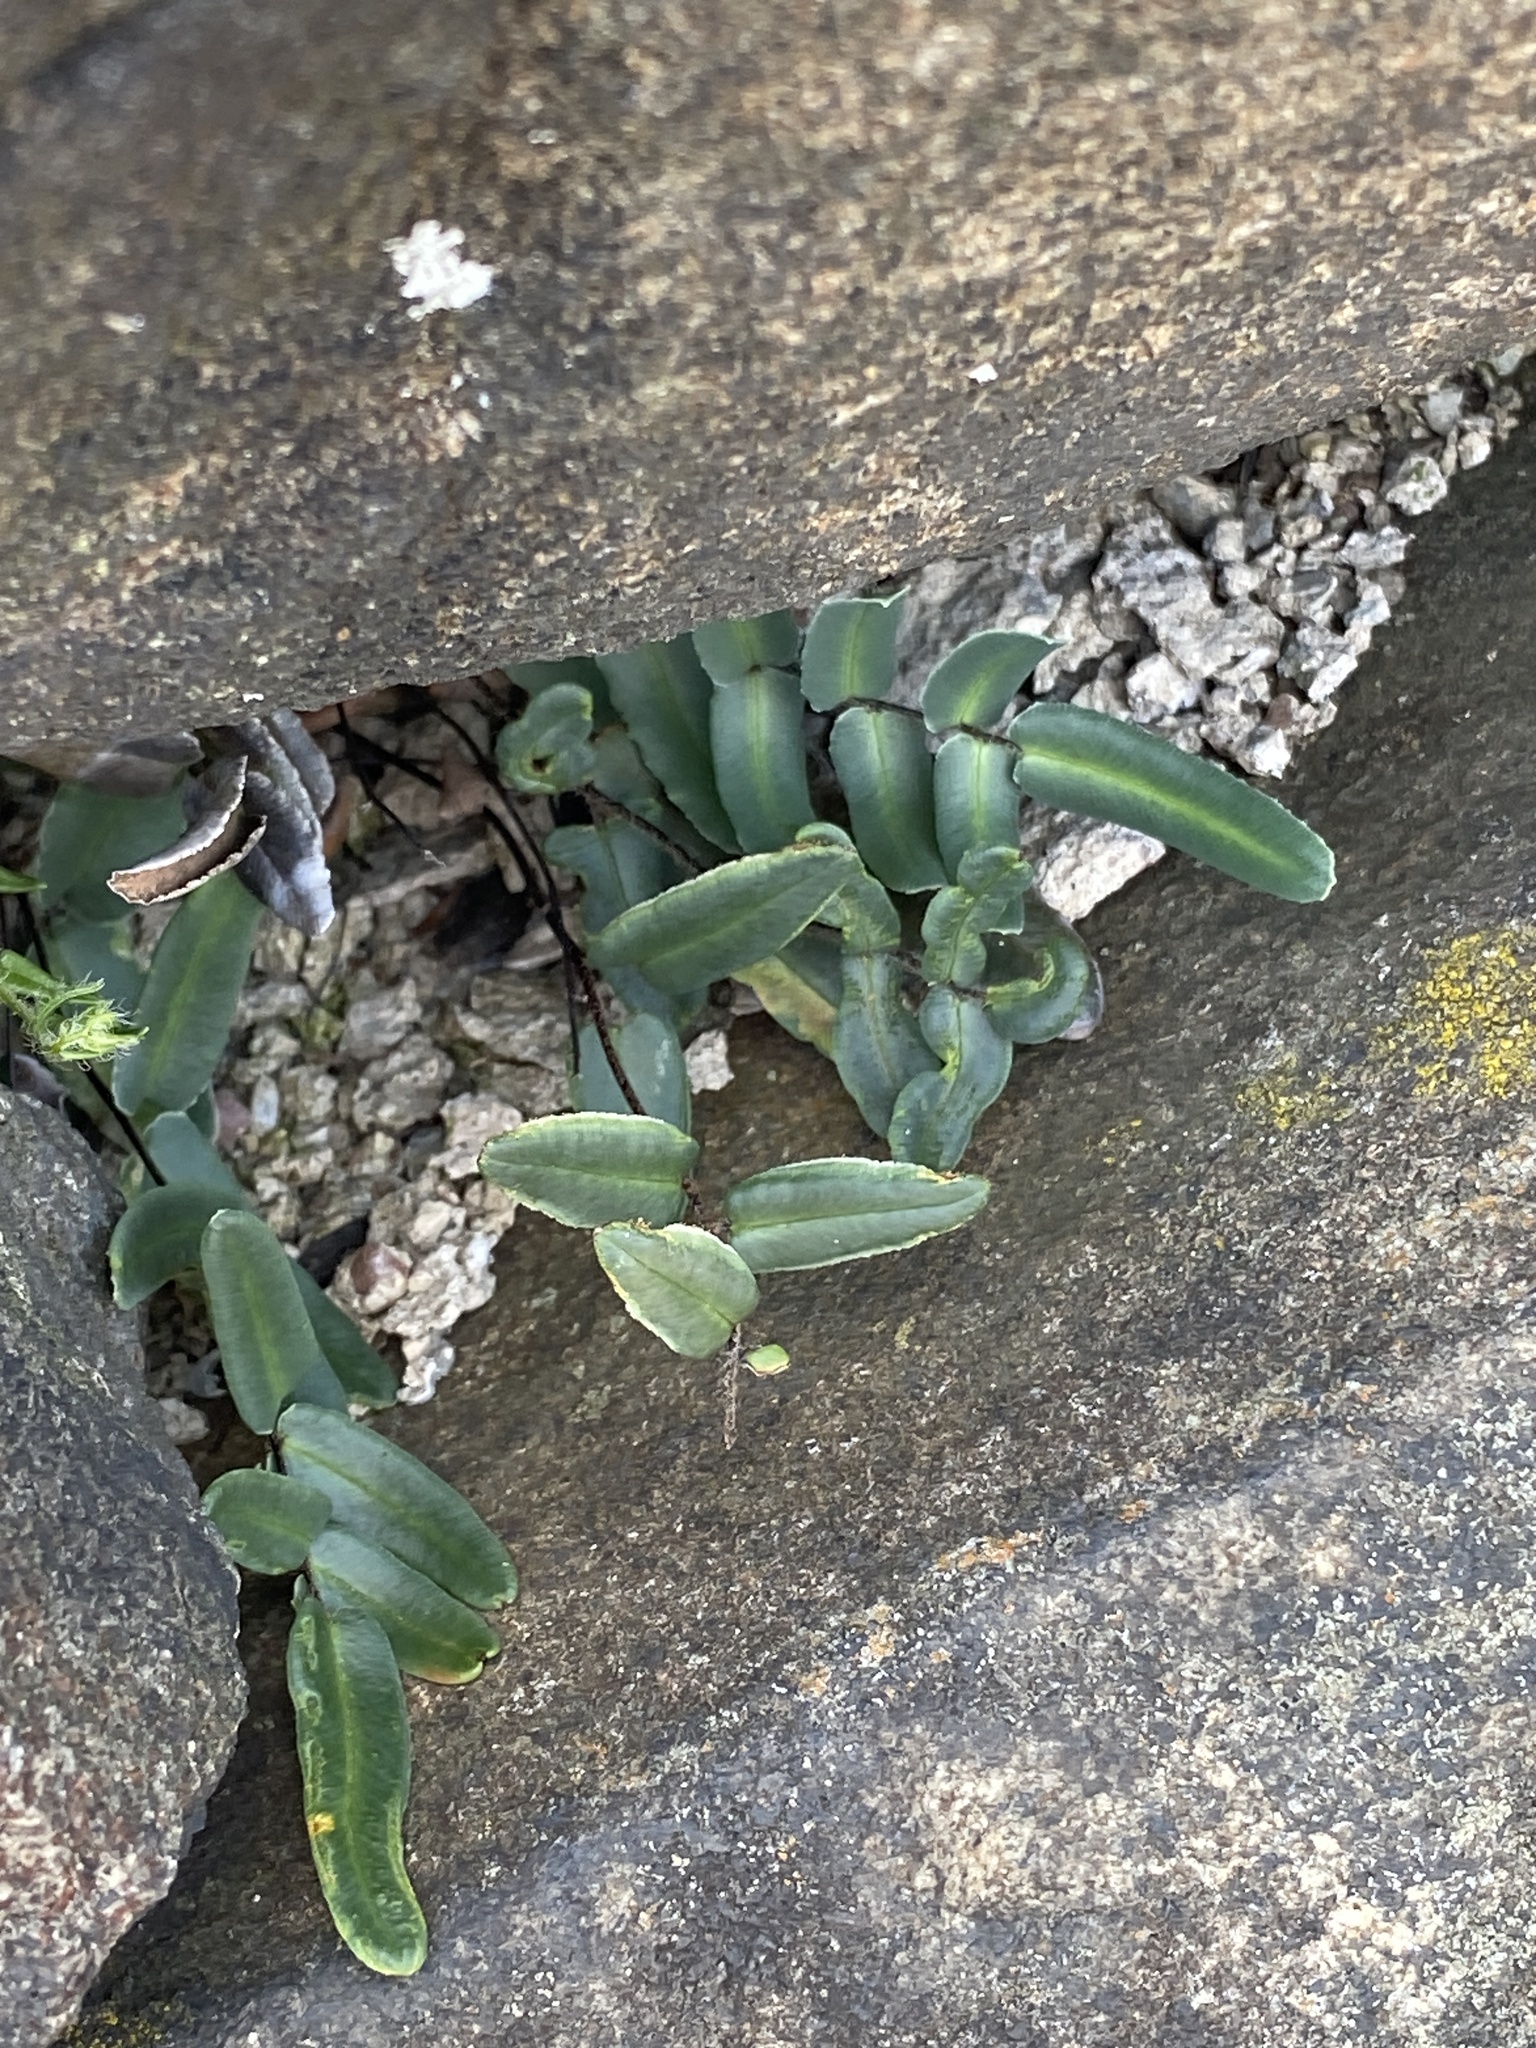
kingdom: Plantae
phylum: Tracheophyta
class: Polypodiopsida
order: Polypodiales
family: Pteridaceae
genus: Pellaea
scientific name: Pellaea atropurpurea
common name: Hairy cliffbrake
